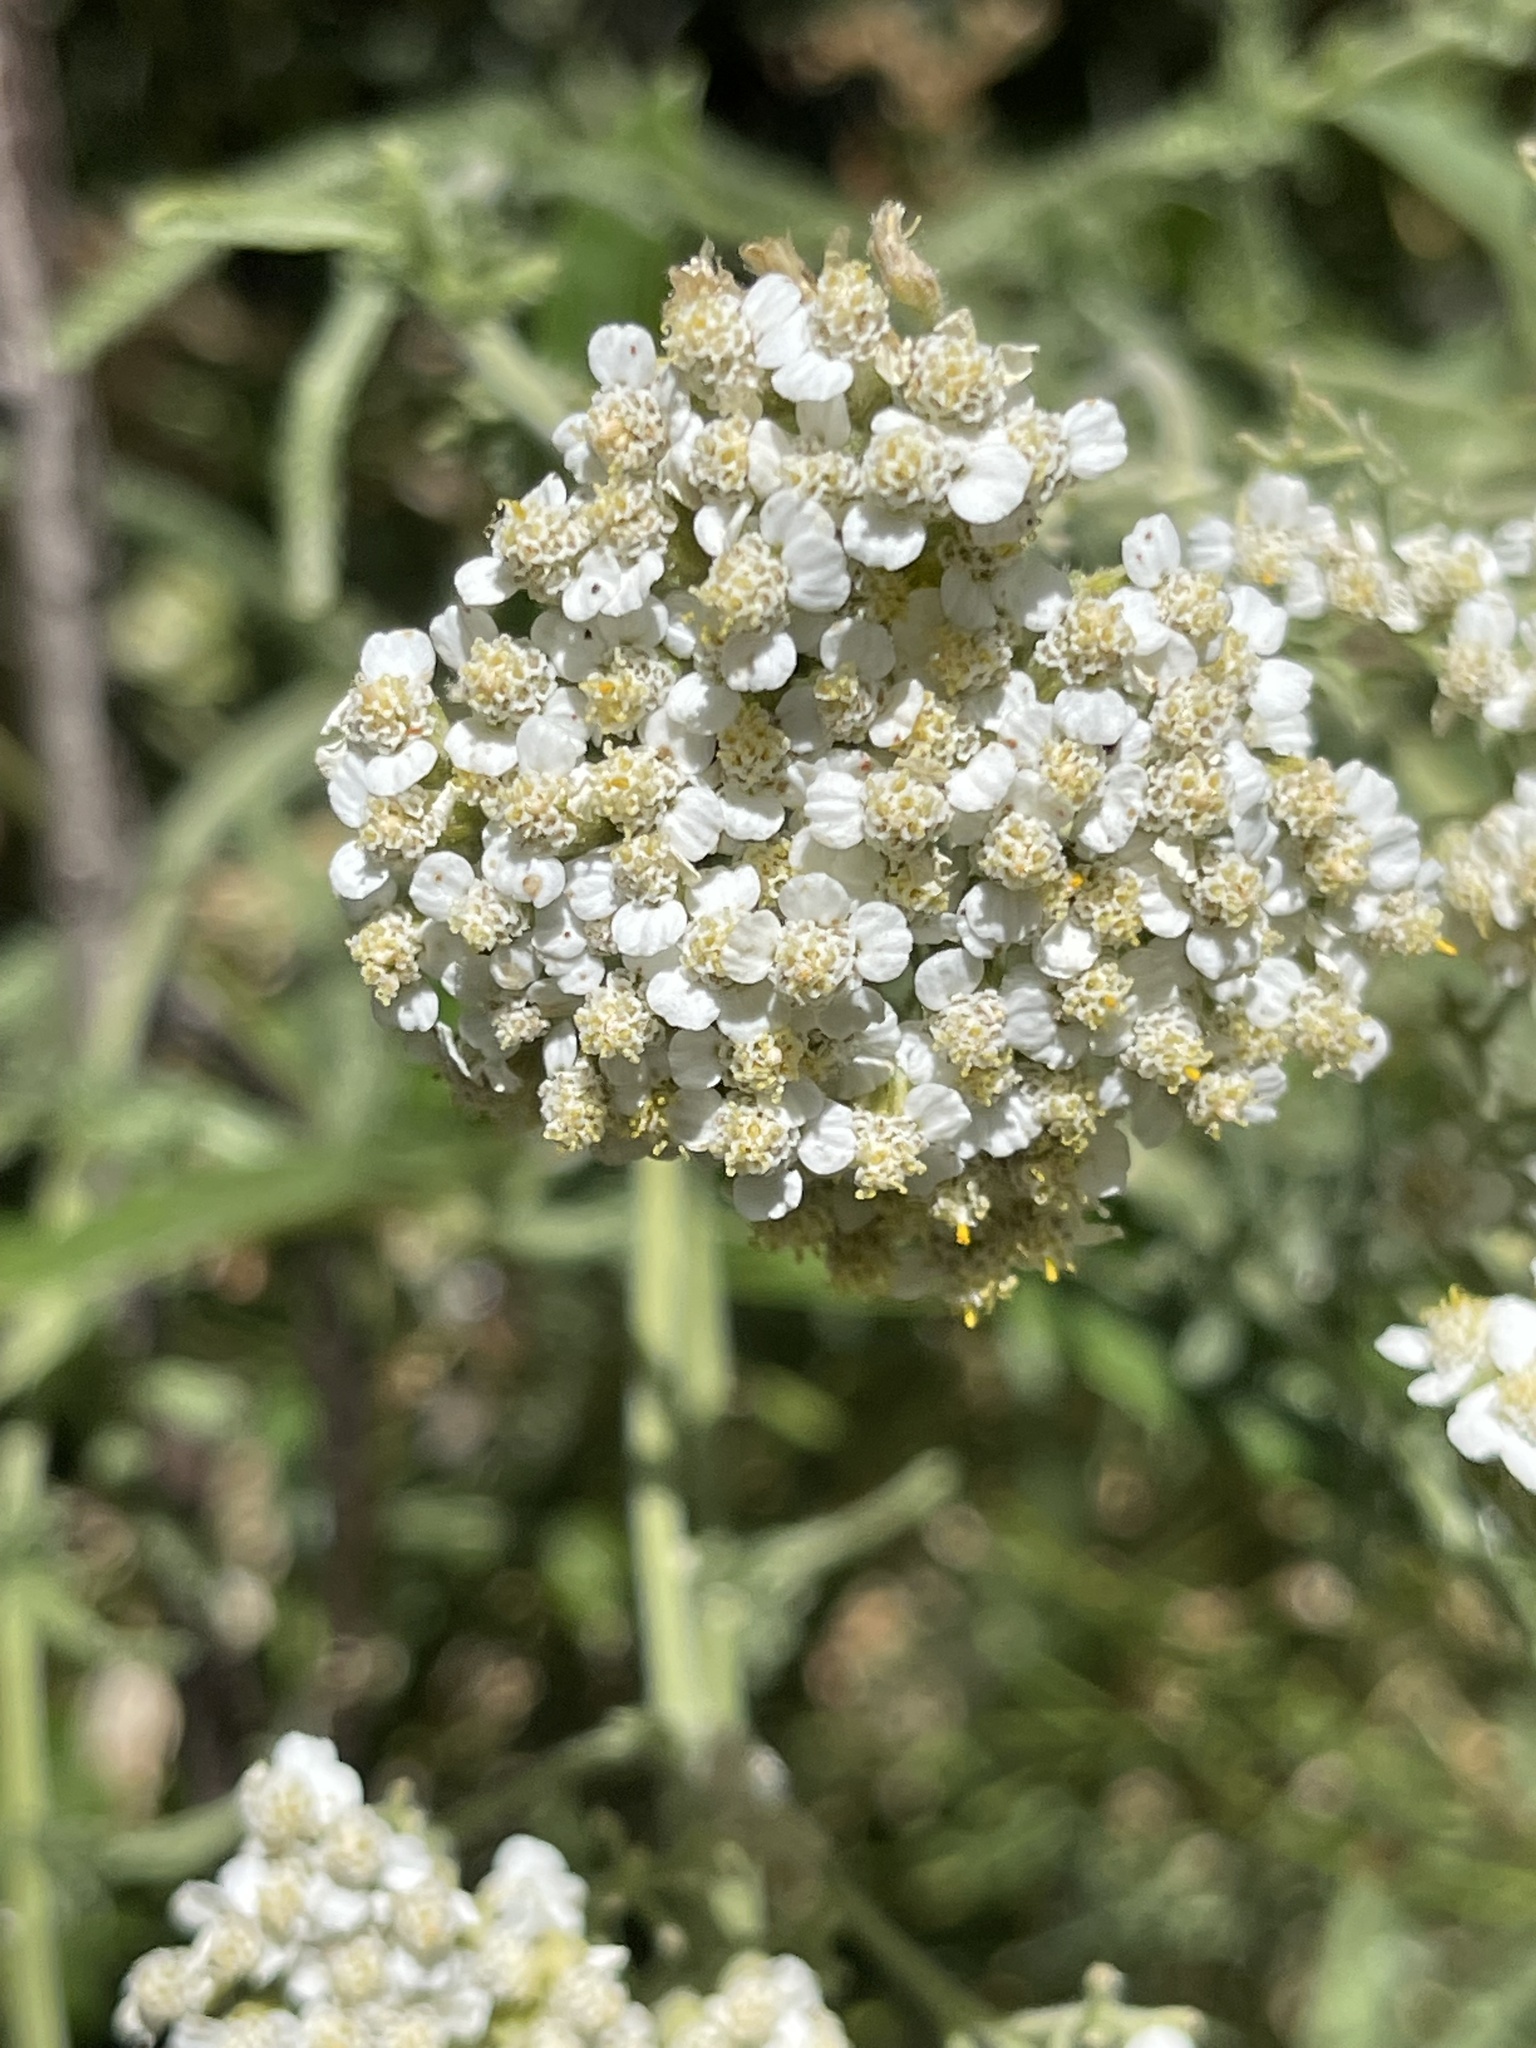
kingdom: Plantae
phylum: Tracheophyta
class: Magnoliopsida
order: Asterales
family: Asteraceae
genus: Achillea
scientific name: Achillea millefolium
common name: Yarrow
